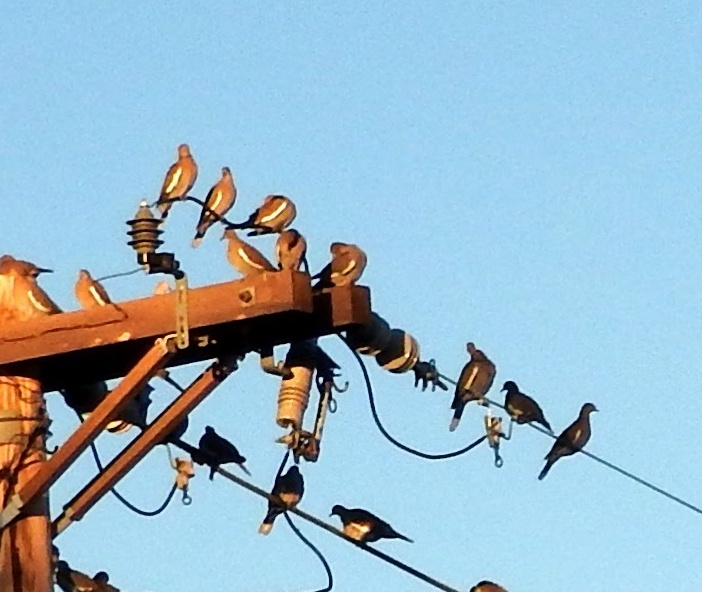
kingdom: Animalia
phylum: Chordata
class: Aves
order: Columbiformes
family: Columbidae
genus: Zenaida
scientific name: Zenaida asiatica
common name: White-winged dove
